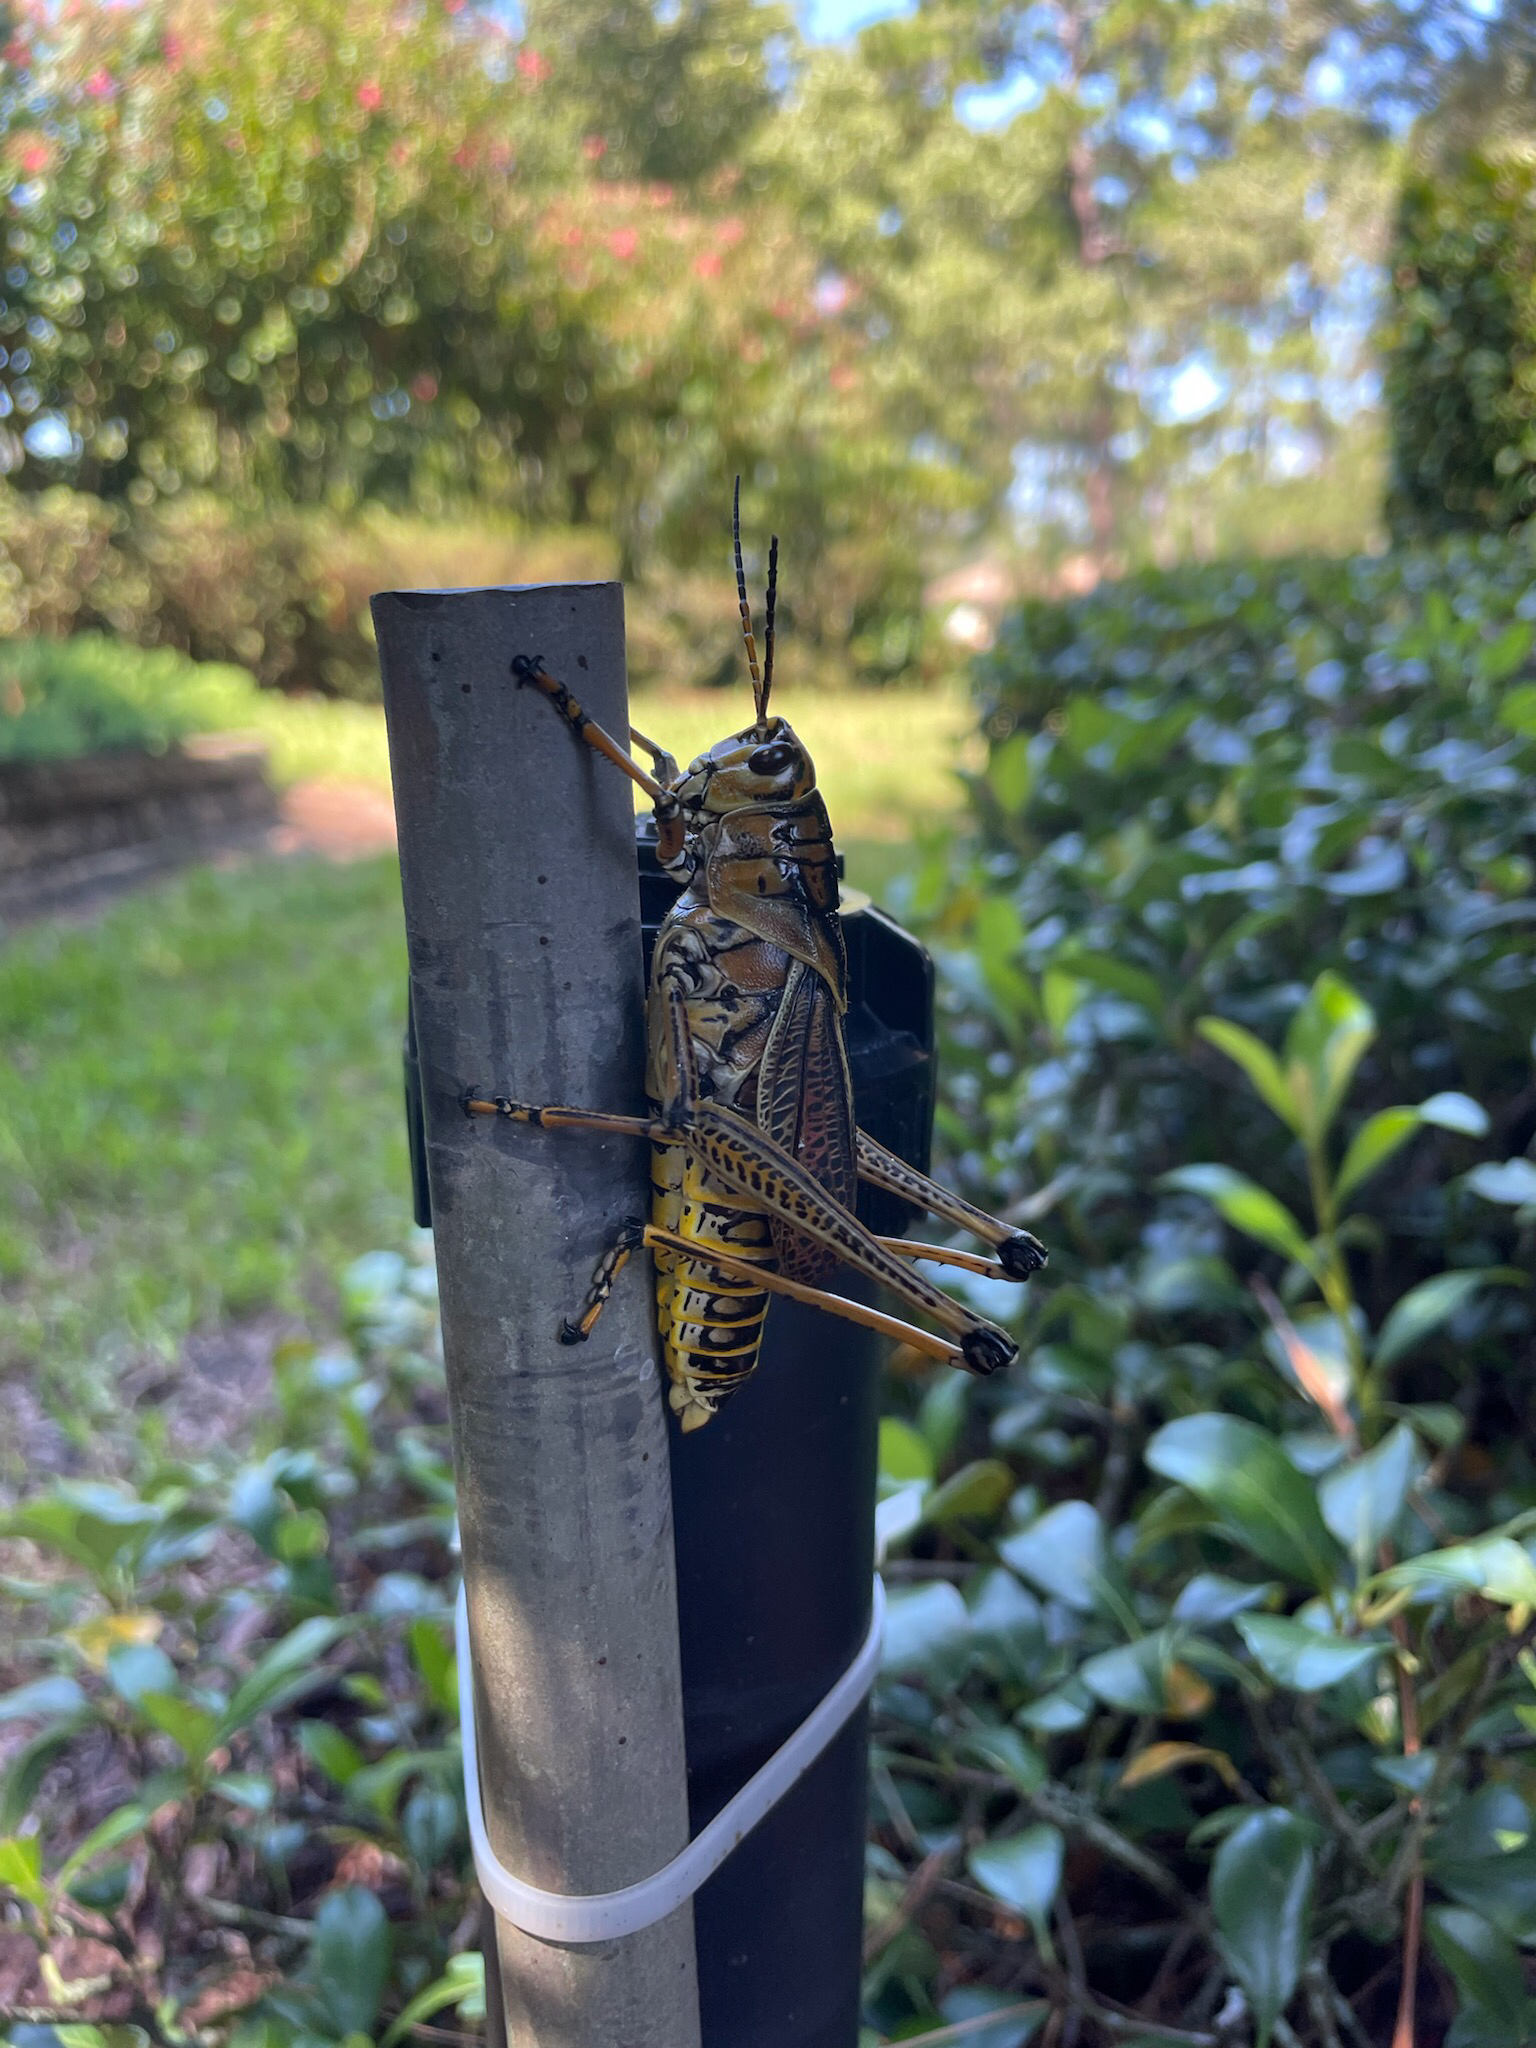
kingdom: Animalia
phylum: Arthropoda
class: Insecta
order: Orthoptera
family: Romaleidae
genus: Romalea
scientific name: Romalea microptera
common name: Eastern lubber grasshopper
